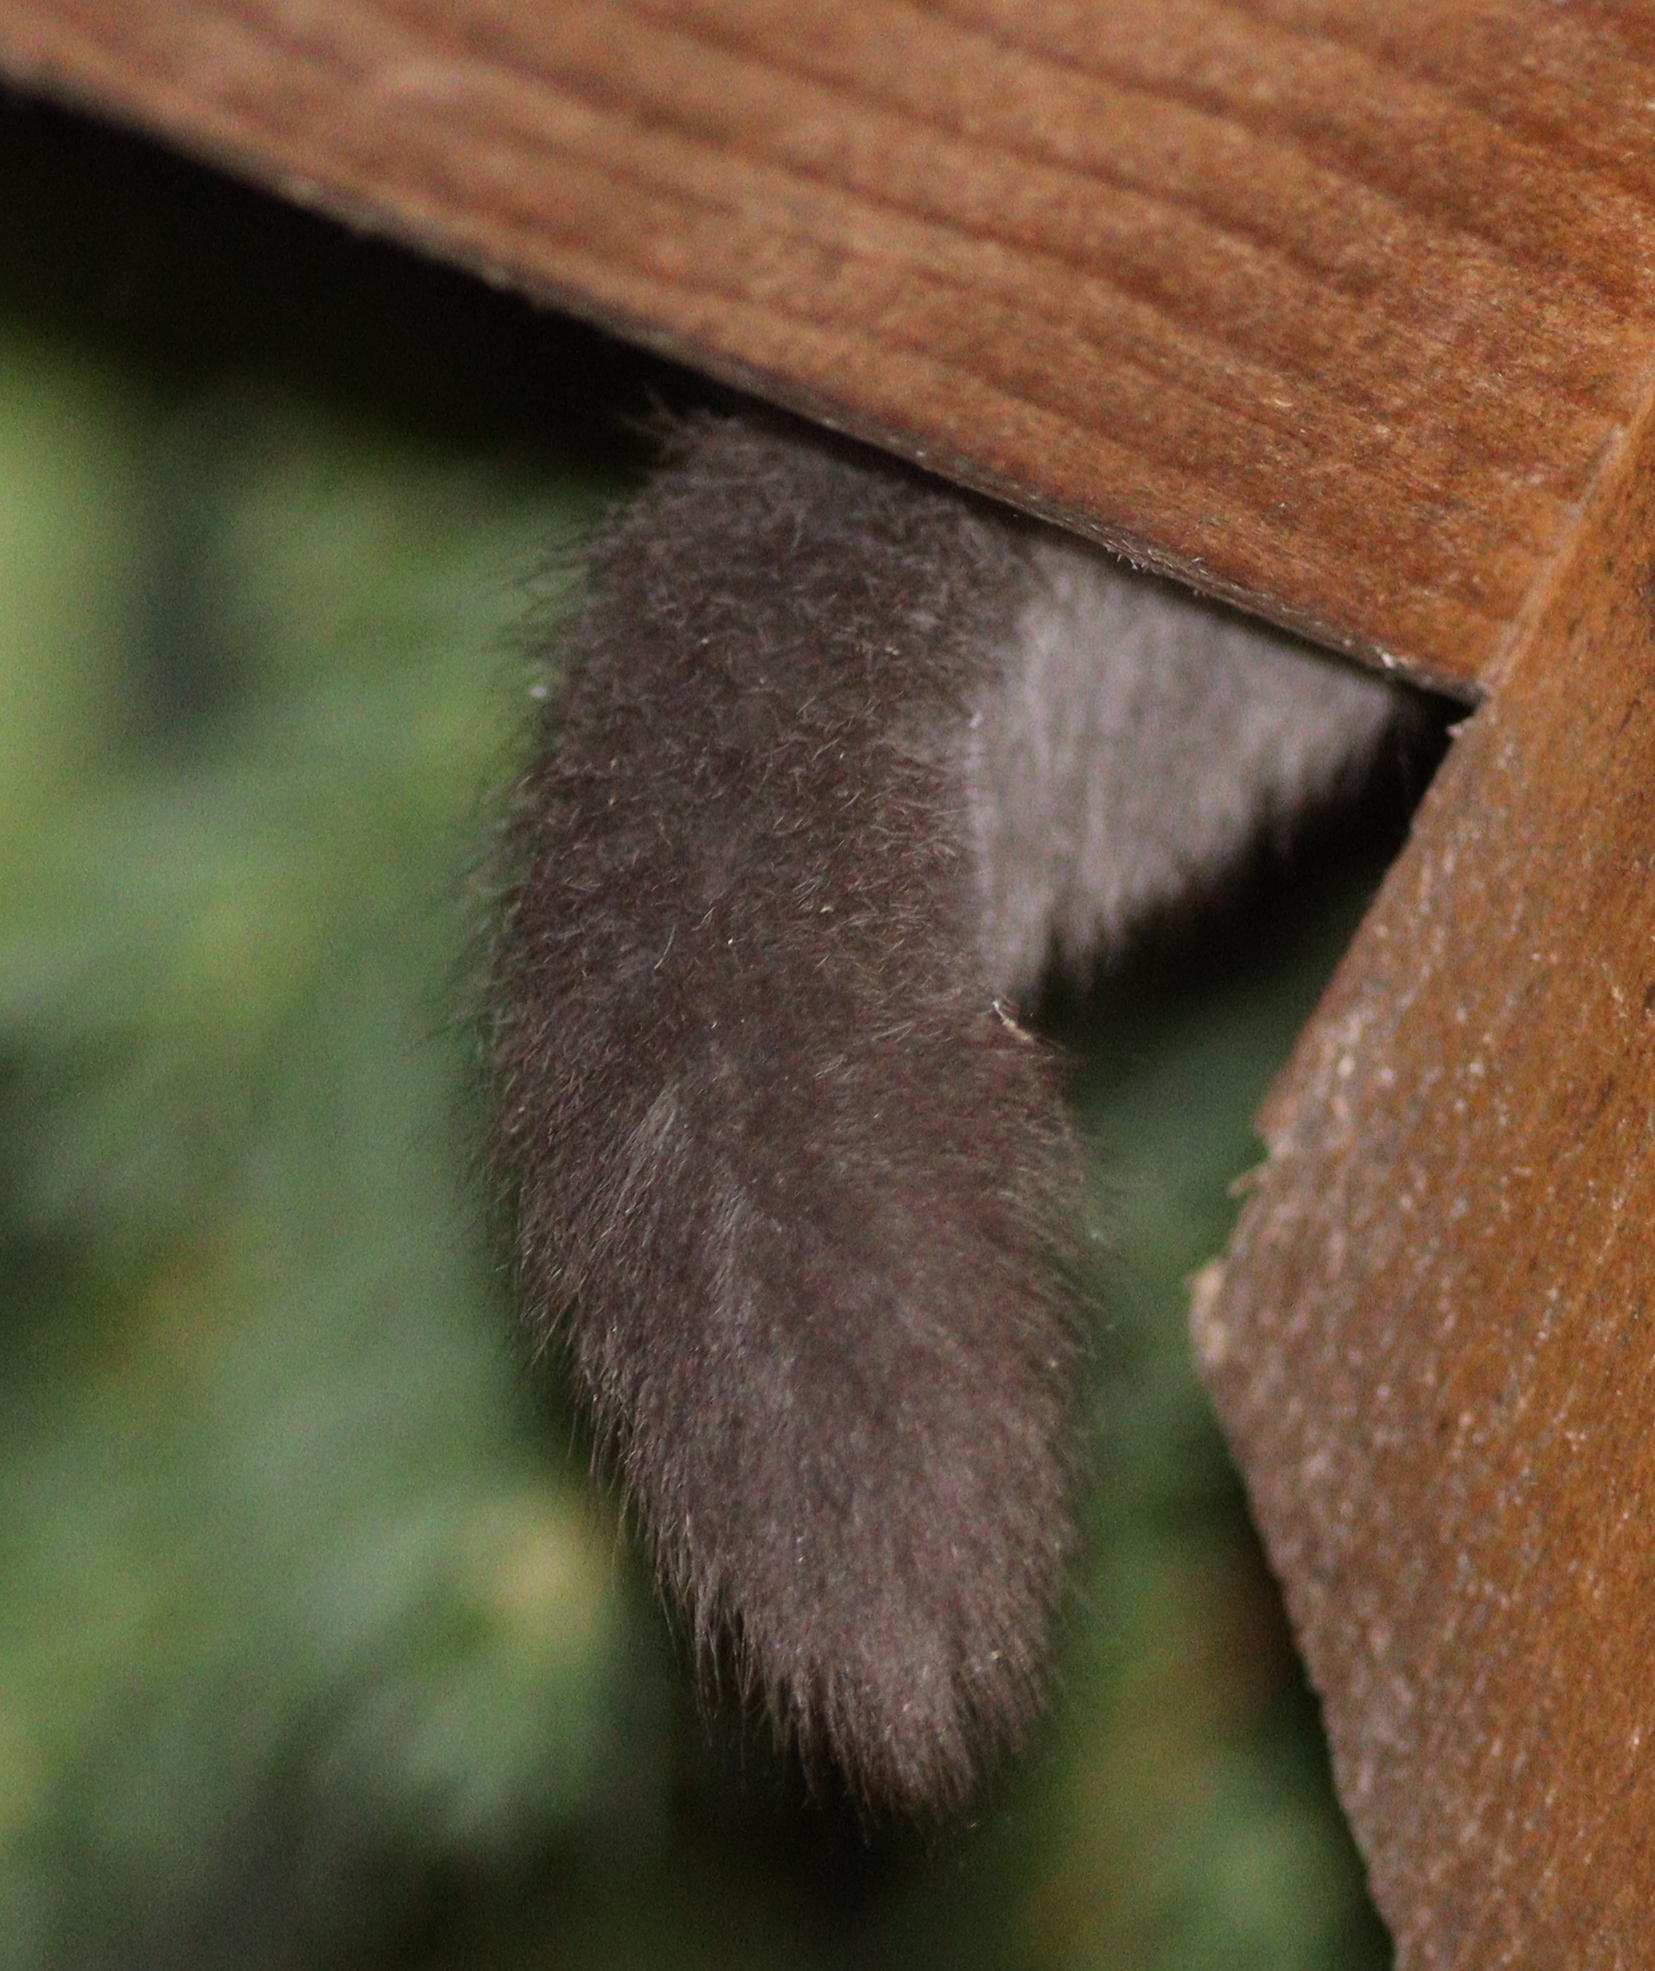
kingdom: Animalia
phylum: Chordata
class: Mammalia
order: Rodentia
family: Gliridae
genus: Glis
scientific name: Glis glis
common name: Fat dormouse
